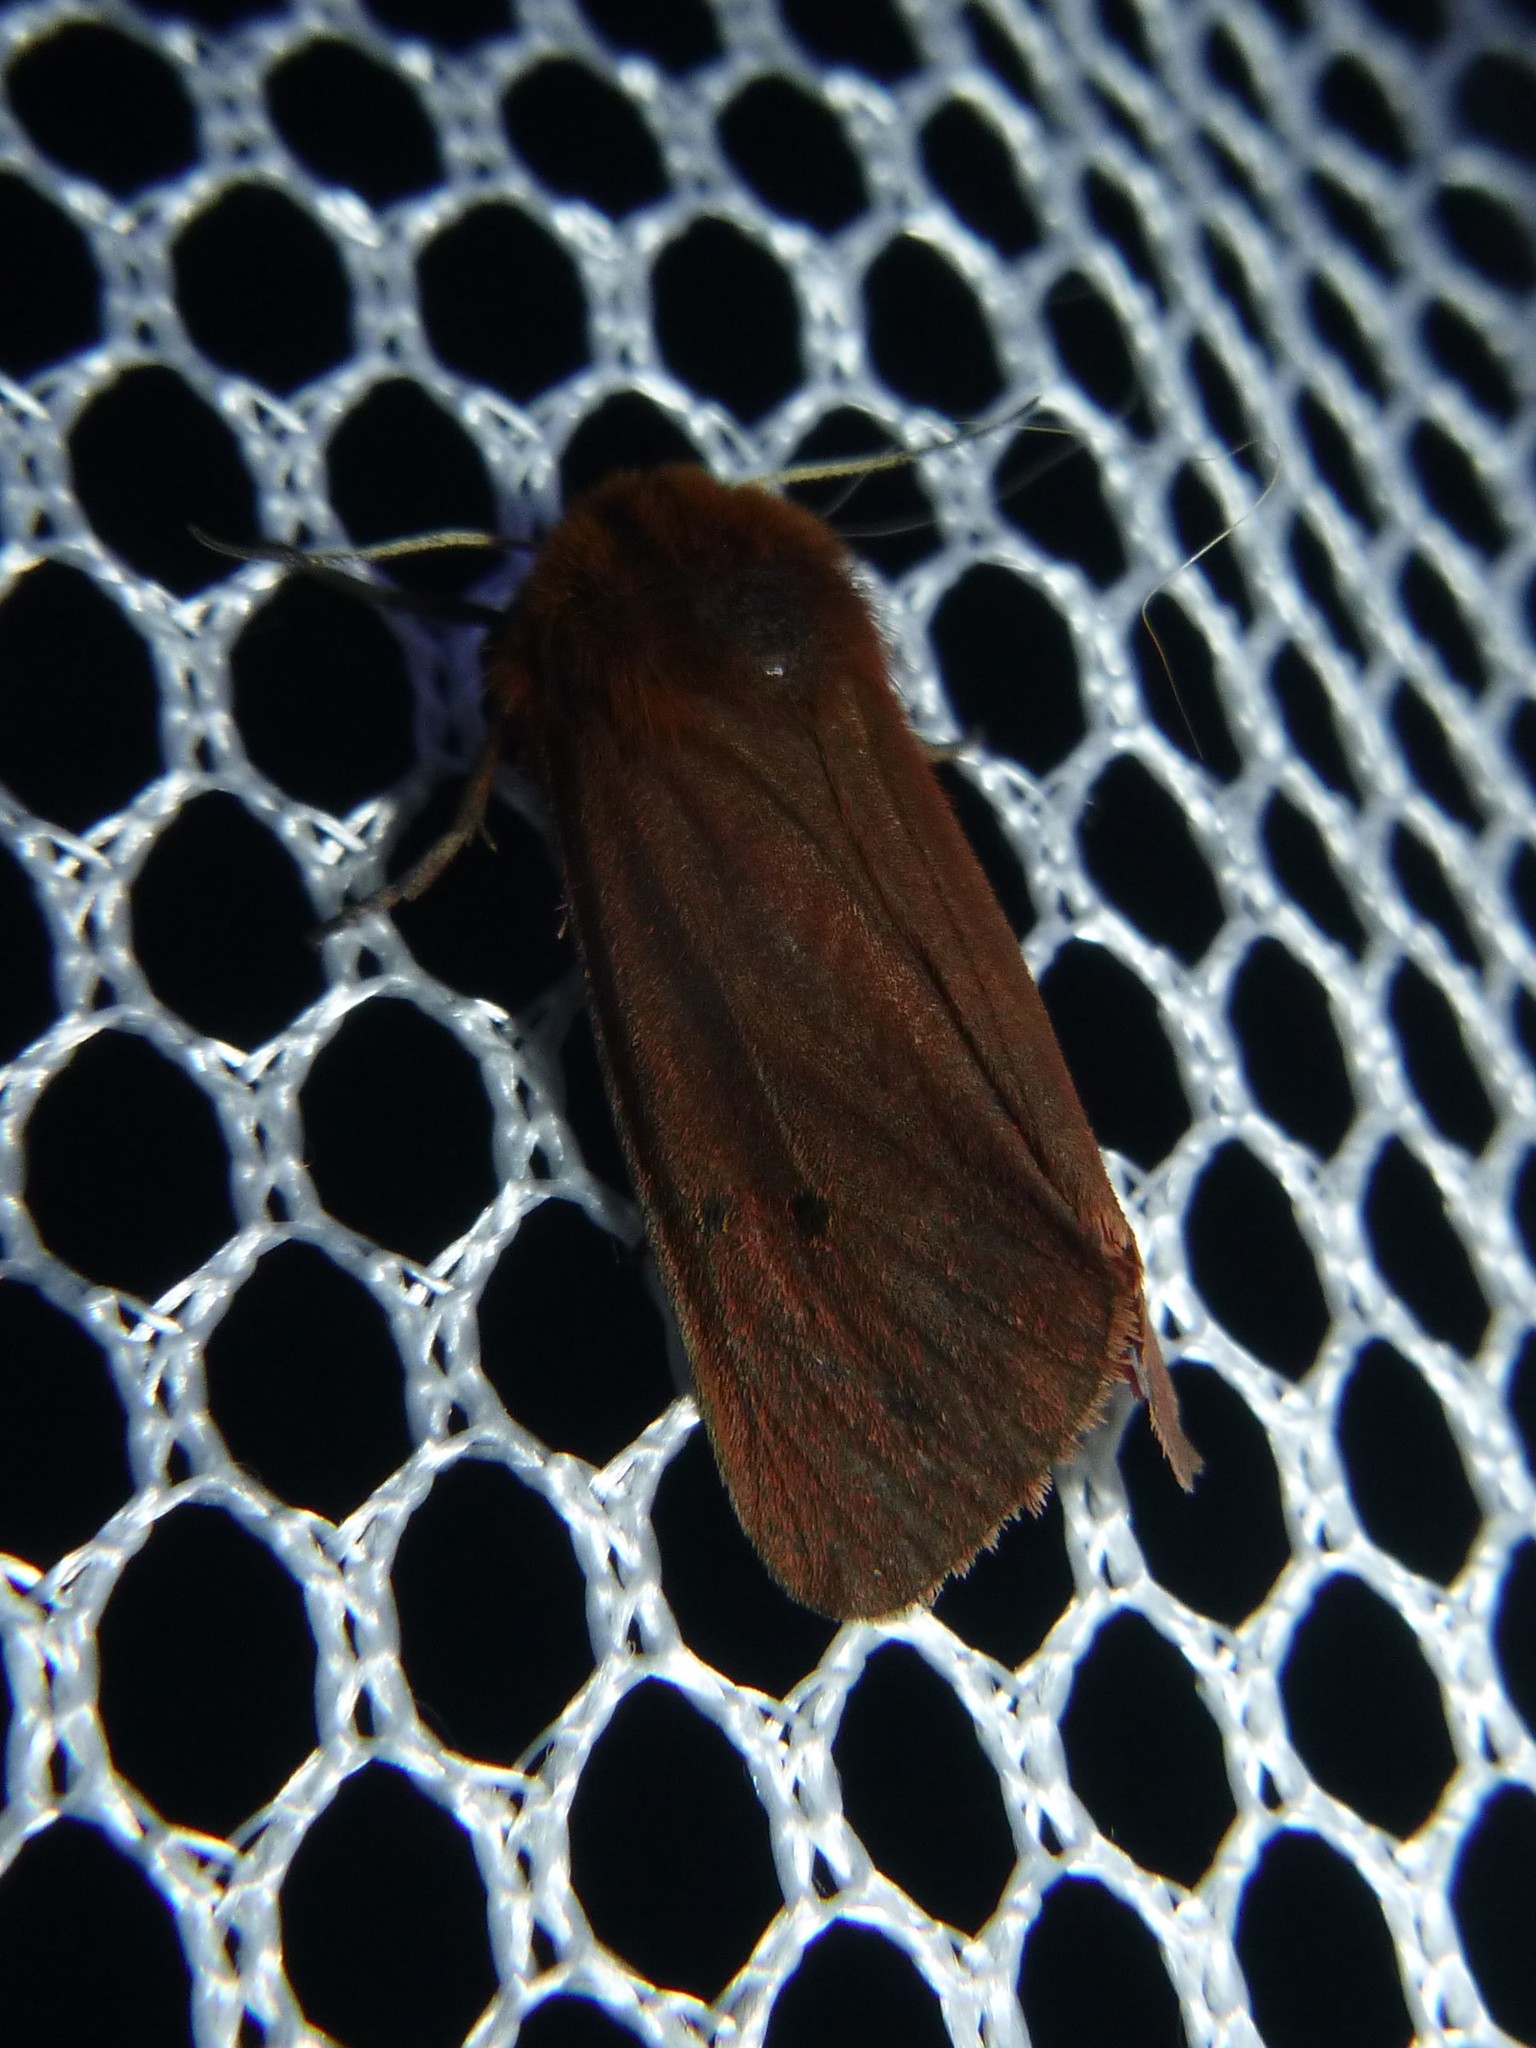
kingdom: Animalia
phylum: Arthropoda
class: Insecta
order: Lepidoptera
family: Erebidae
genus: Phragmatobia
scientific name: Phragmatobia fuliginosa
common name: Ruby tiger
